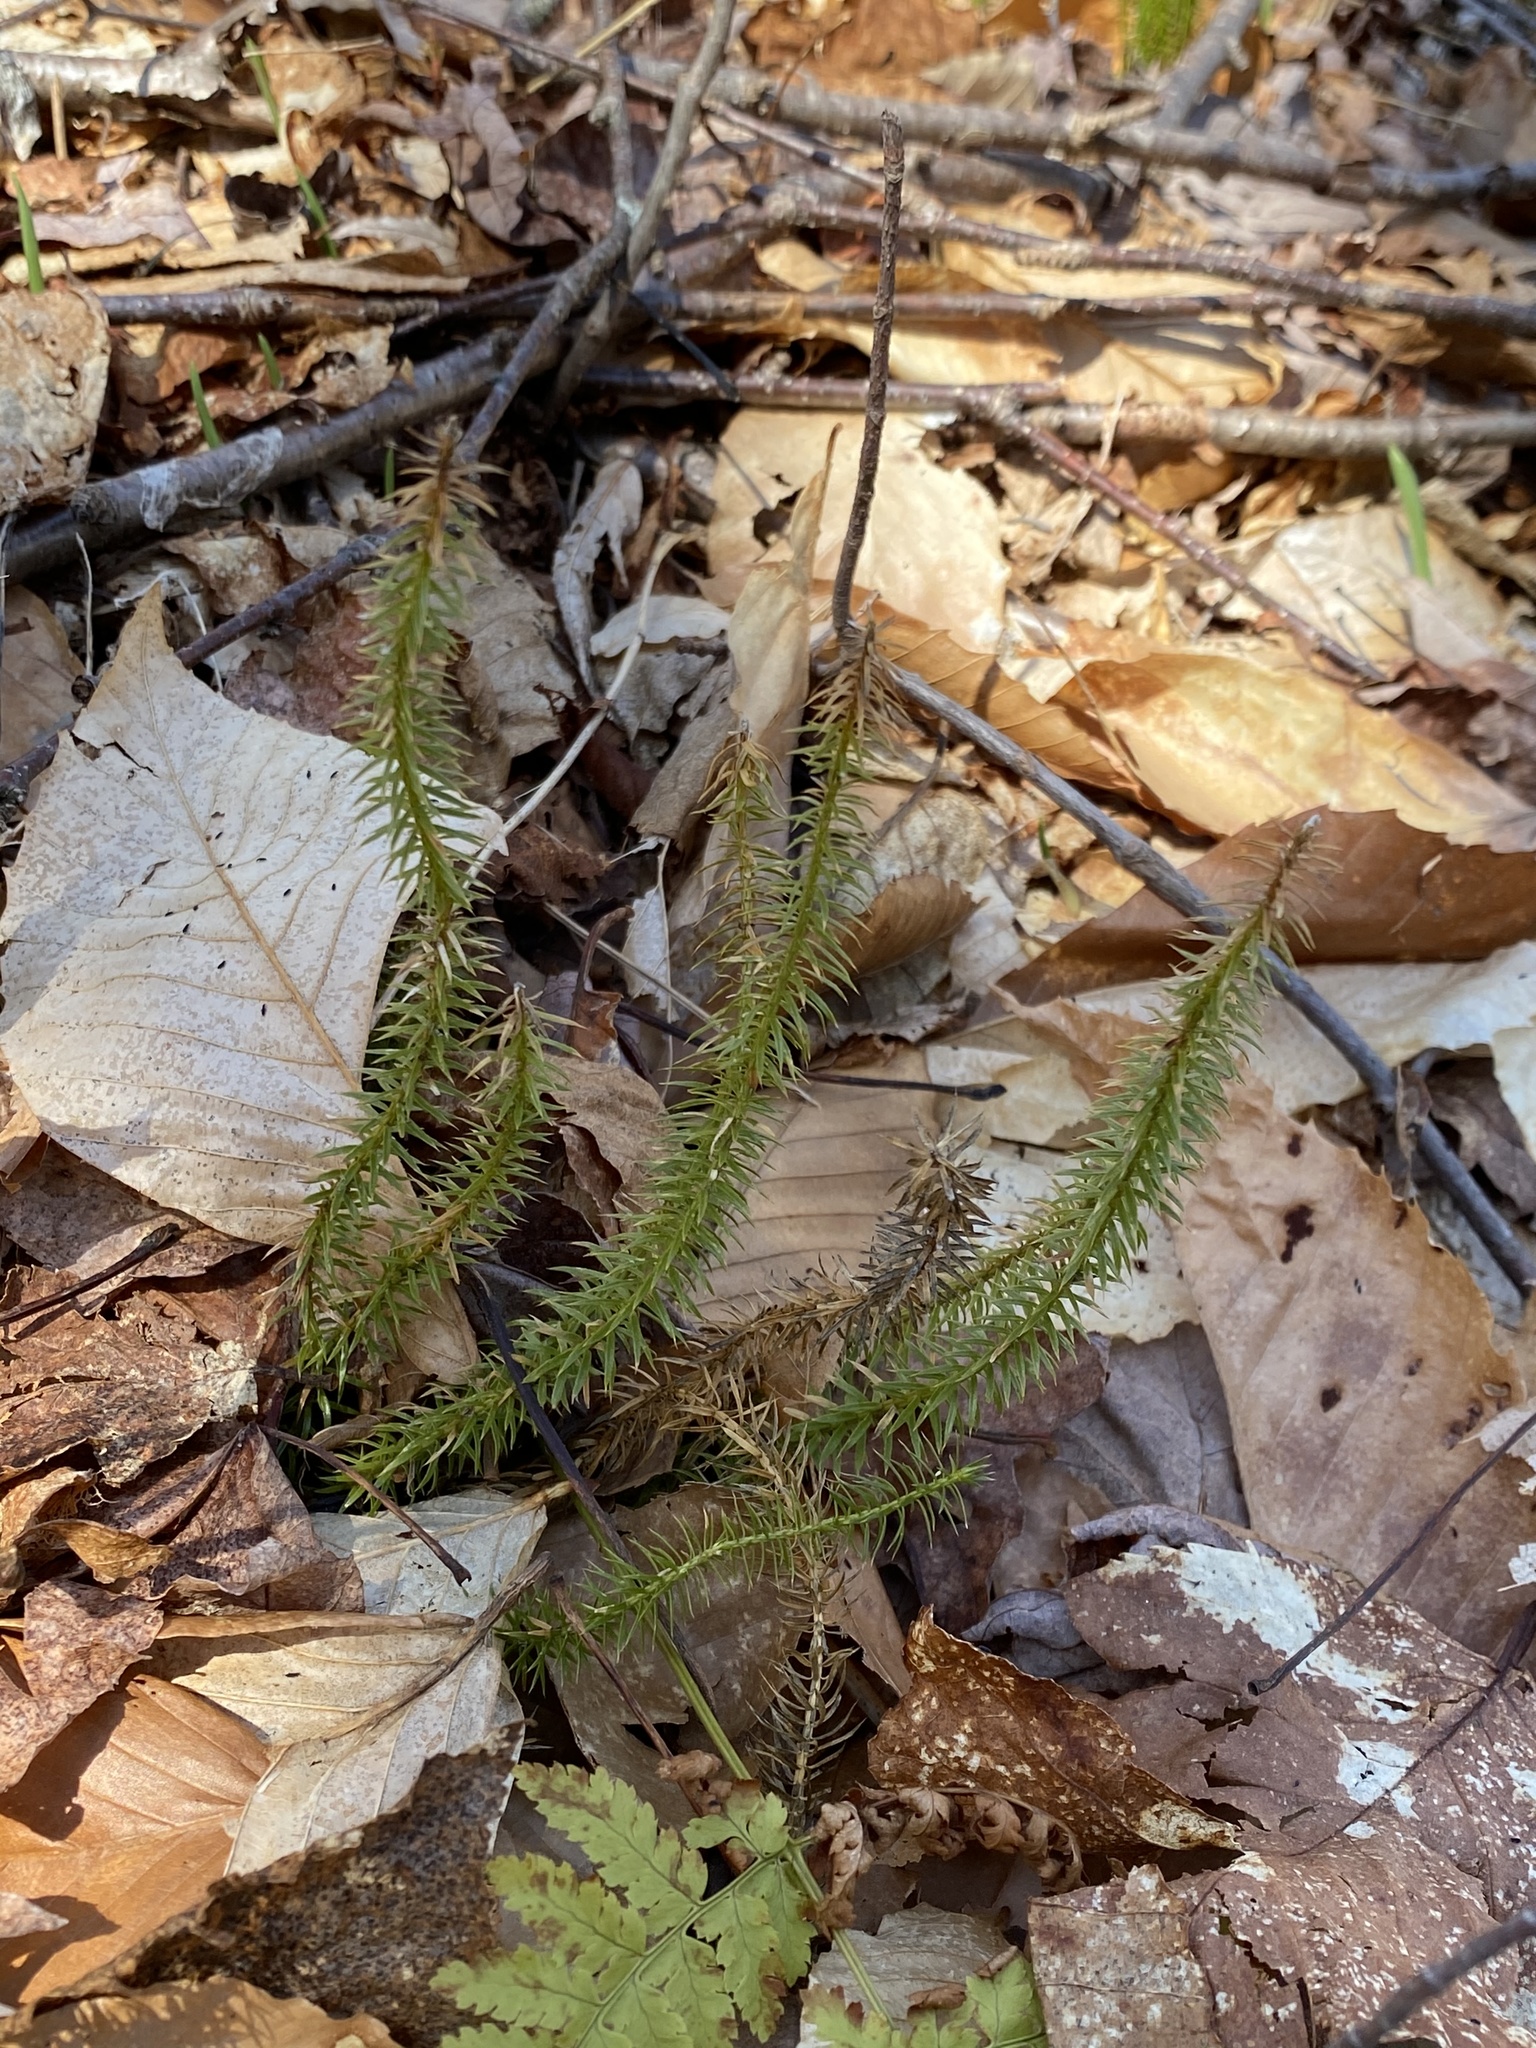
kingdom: Plantae
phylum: Tracheophyta
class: Lycopodiopsida
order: Lycopodiales
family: Lycopodiaceae
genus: Spinulum
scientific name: Spinulum annotinum
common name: Interrupted club-moss
